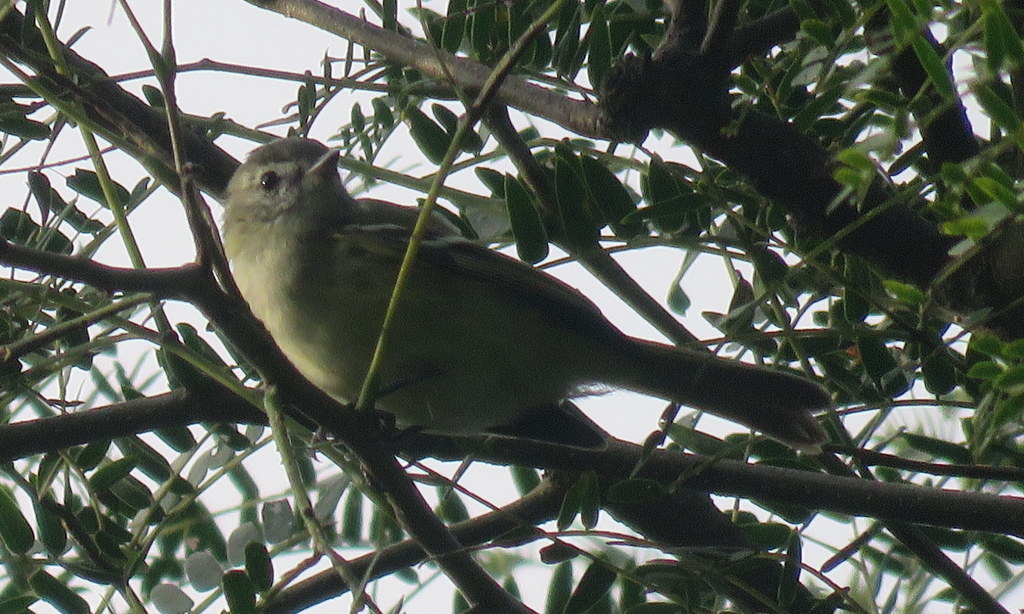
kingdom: Animalia
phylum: Chordata
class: Aves
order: Passeriformes
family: Tyrannidae
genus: Phyllomyias
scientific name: Phyllomyias sclateri
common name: Sclater's tyrannulet
